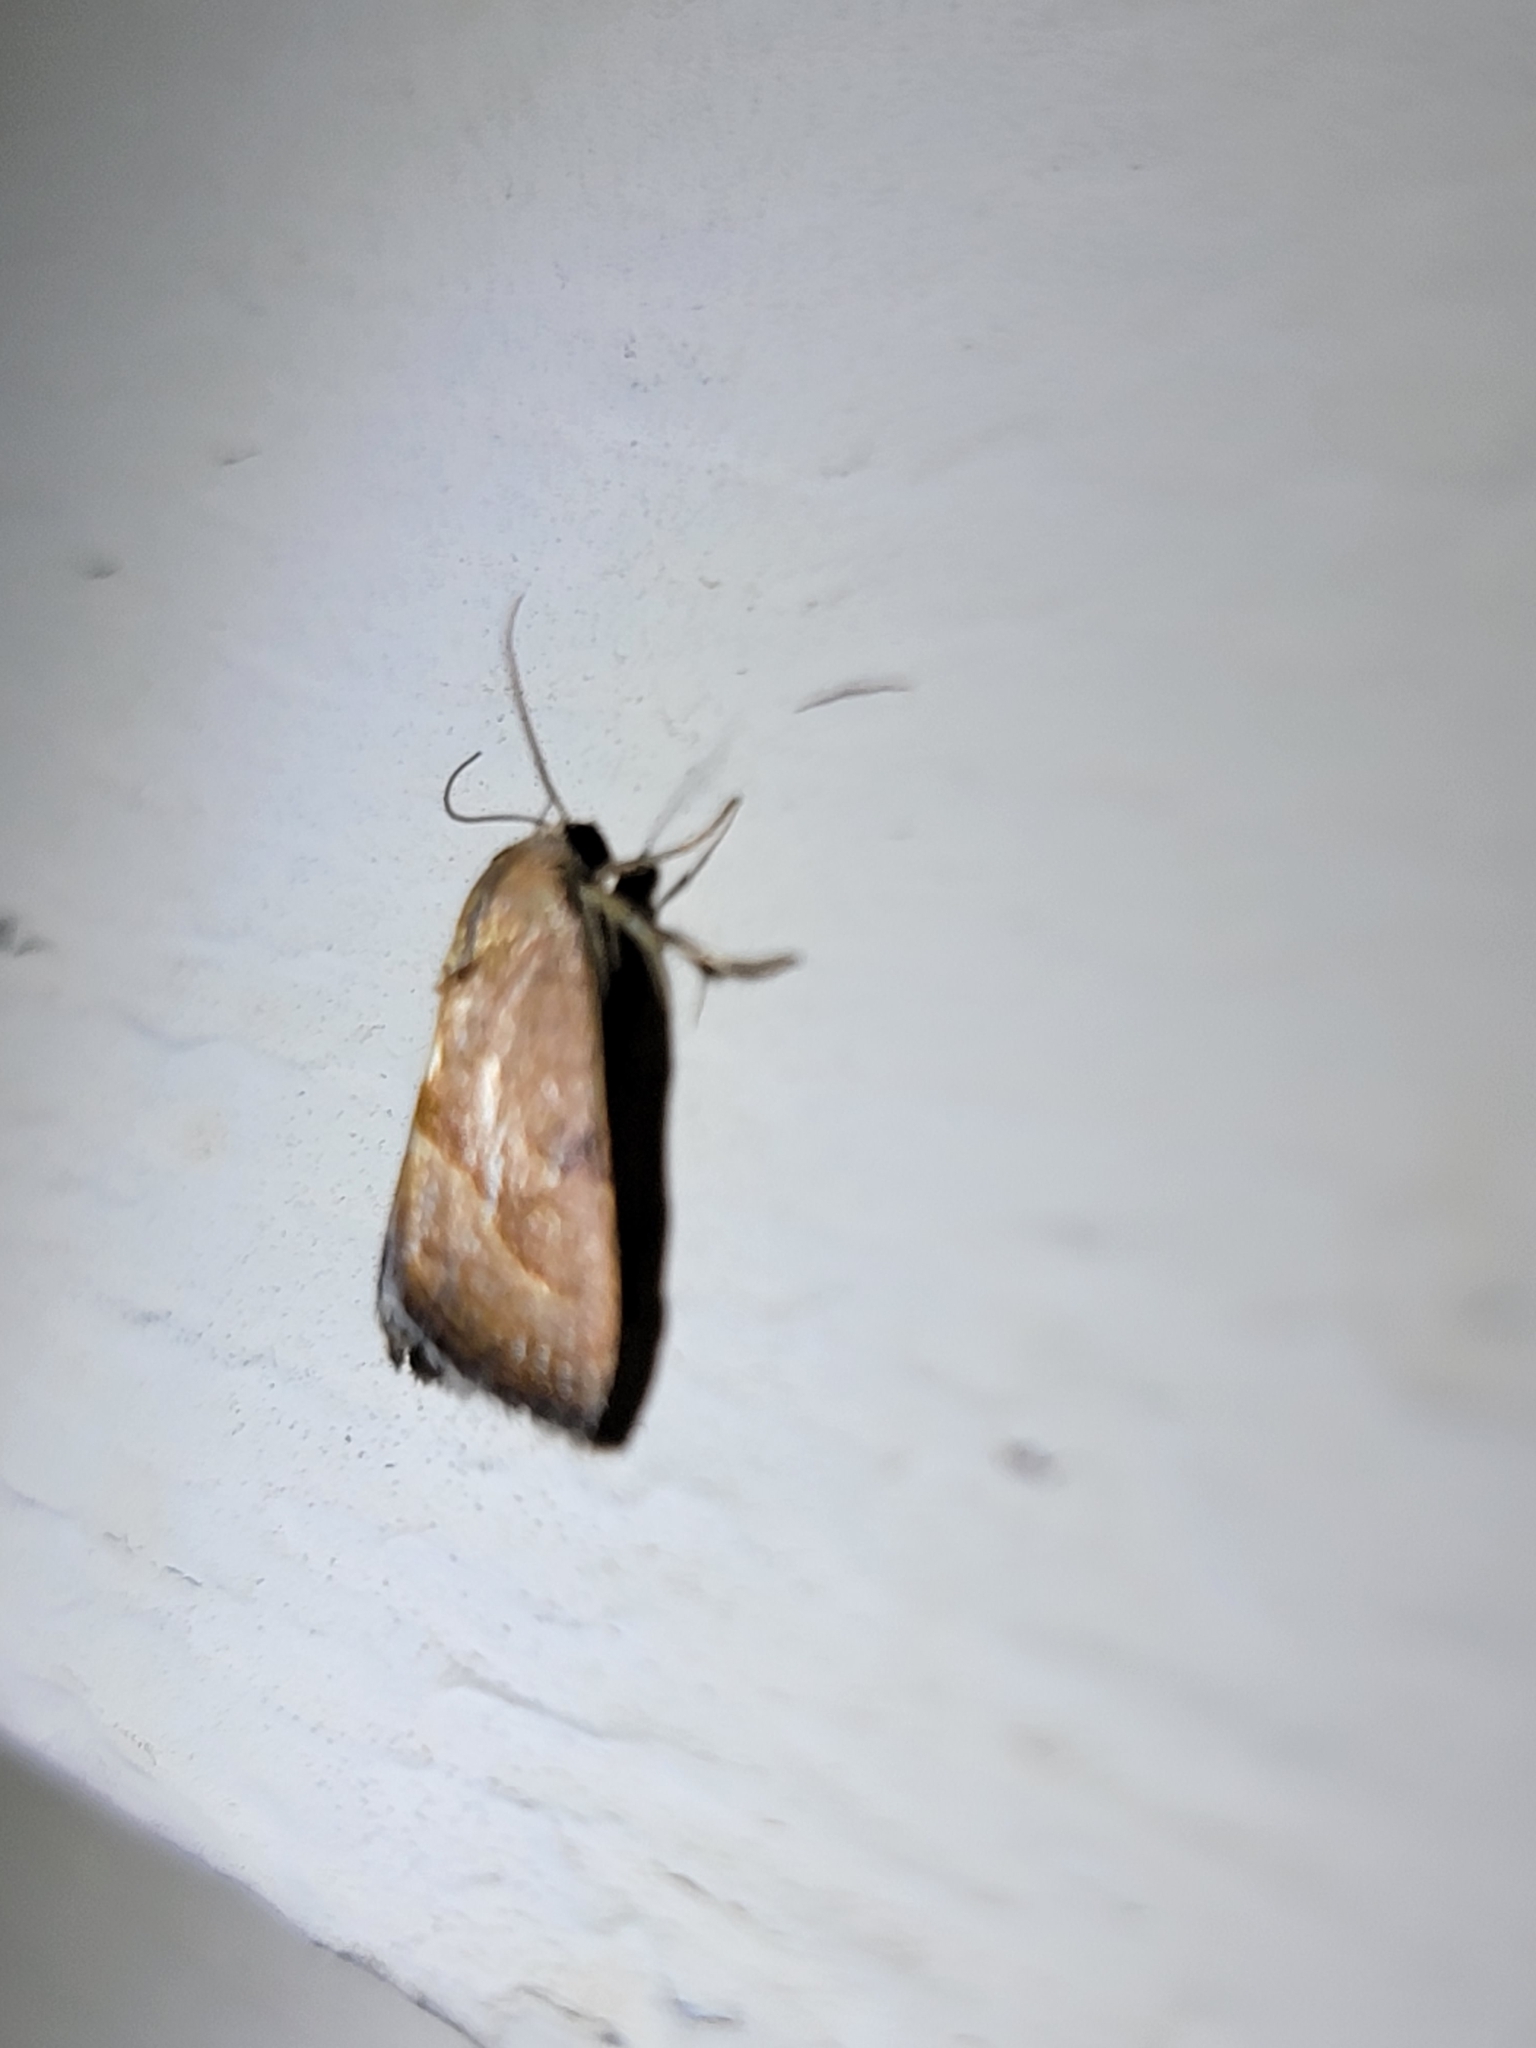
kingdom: Animalia
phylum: Arthropoda
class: Insecta
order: Lepidoptera
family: Noctuidae
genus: Galgula
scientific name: Galgula partita
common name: Wedgeling
